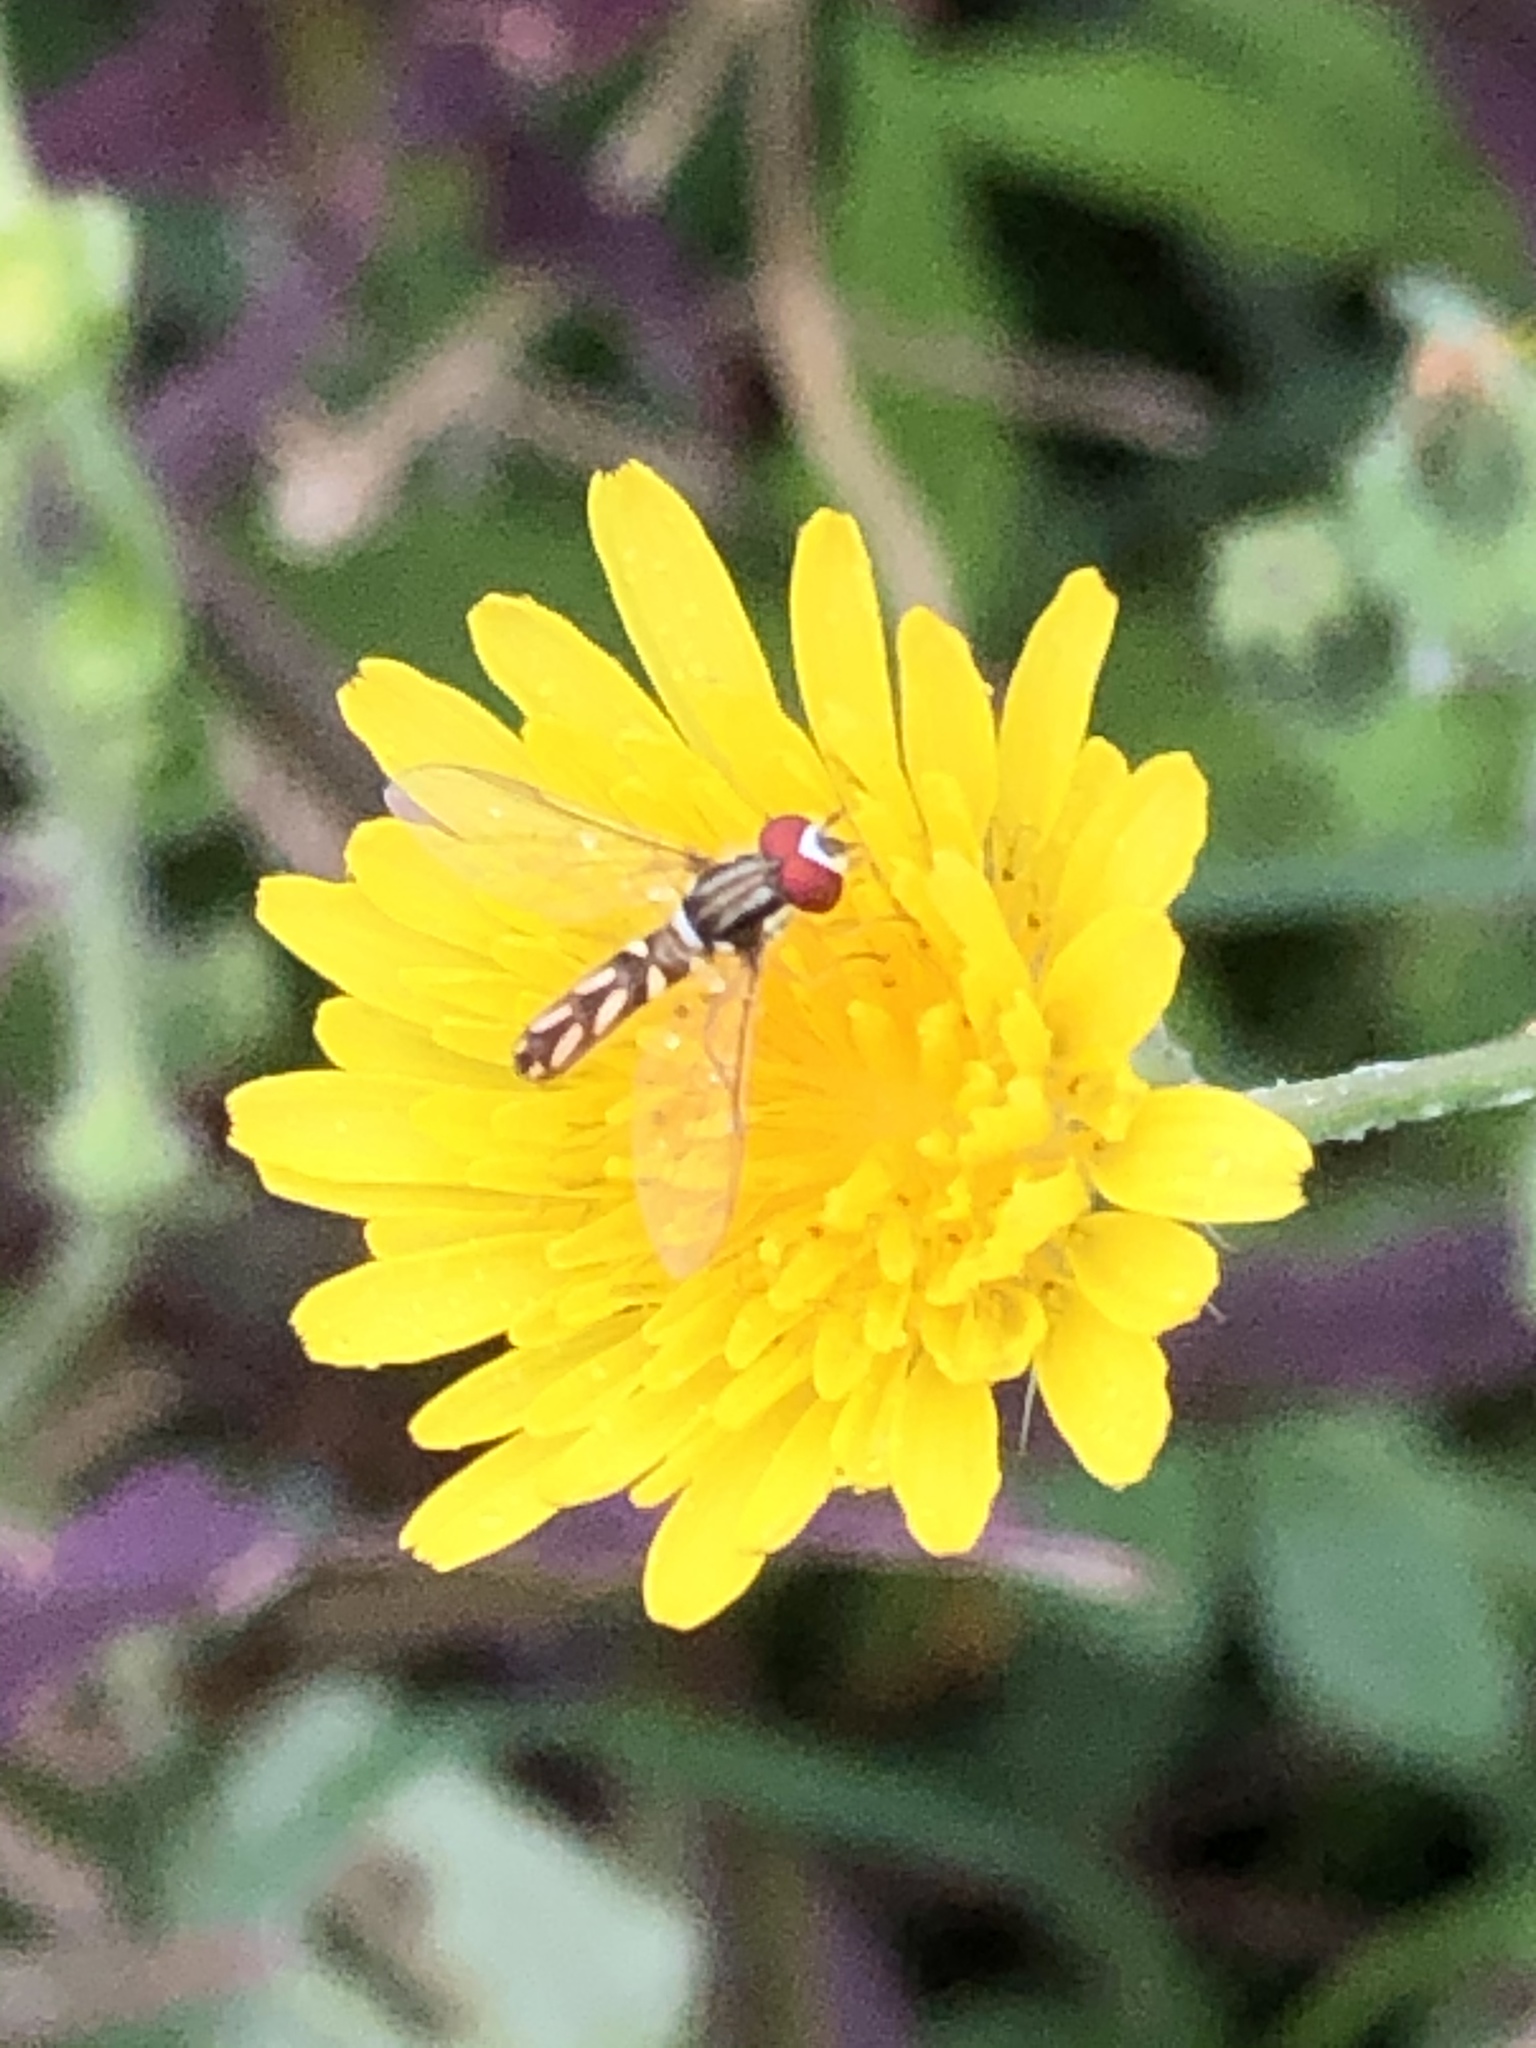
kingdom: Animalia
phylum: Arthropoda
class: Insecta
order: Diptera
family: Syrphidae
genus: Allograpta
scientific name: Allograpta piurana
